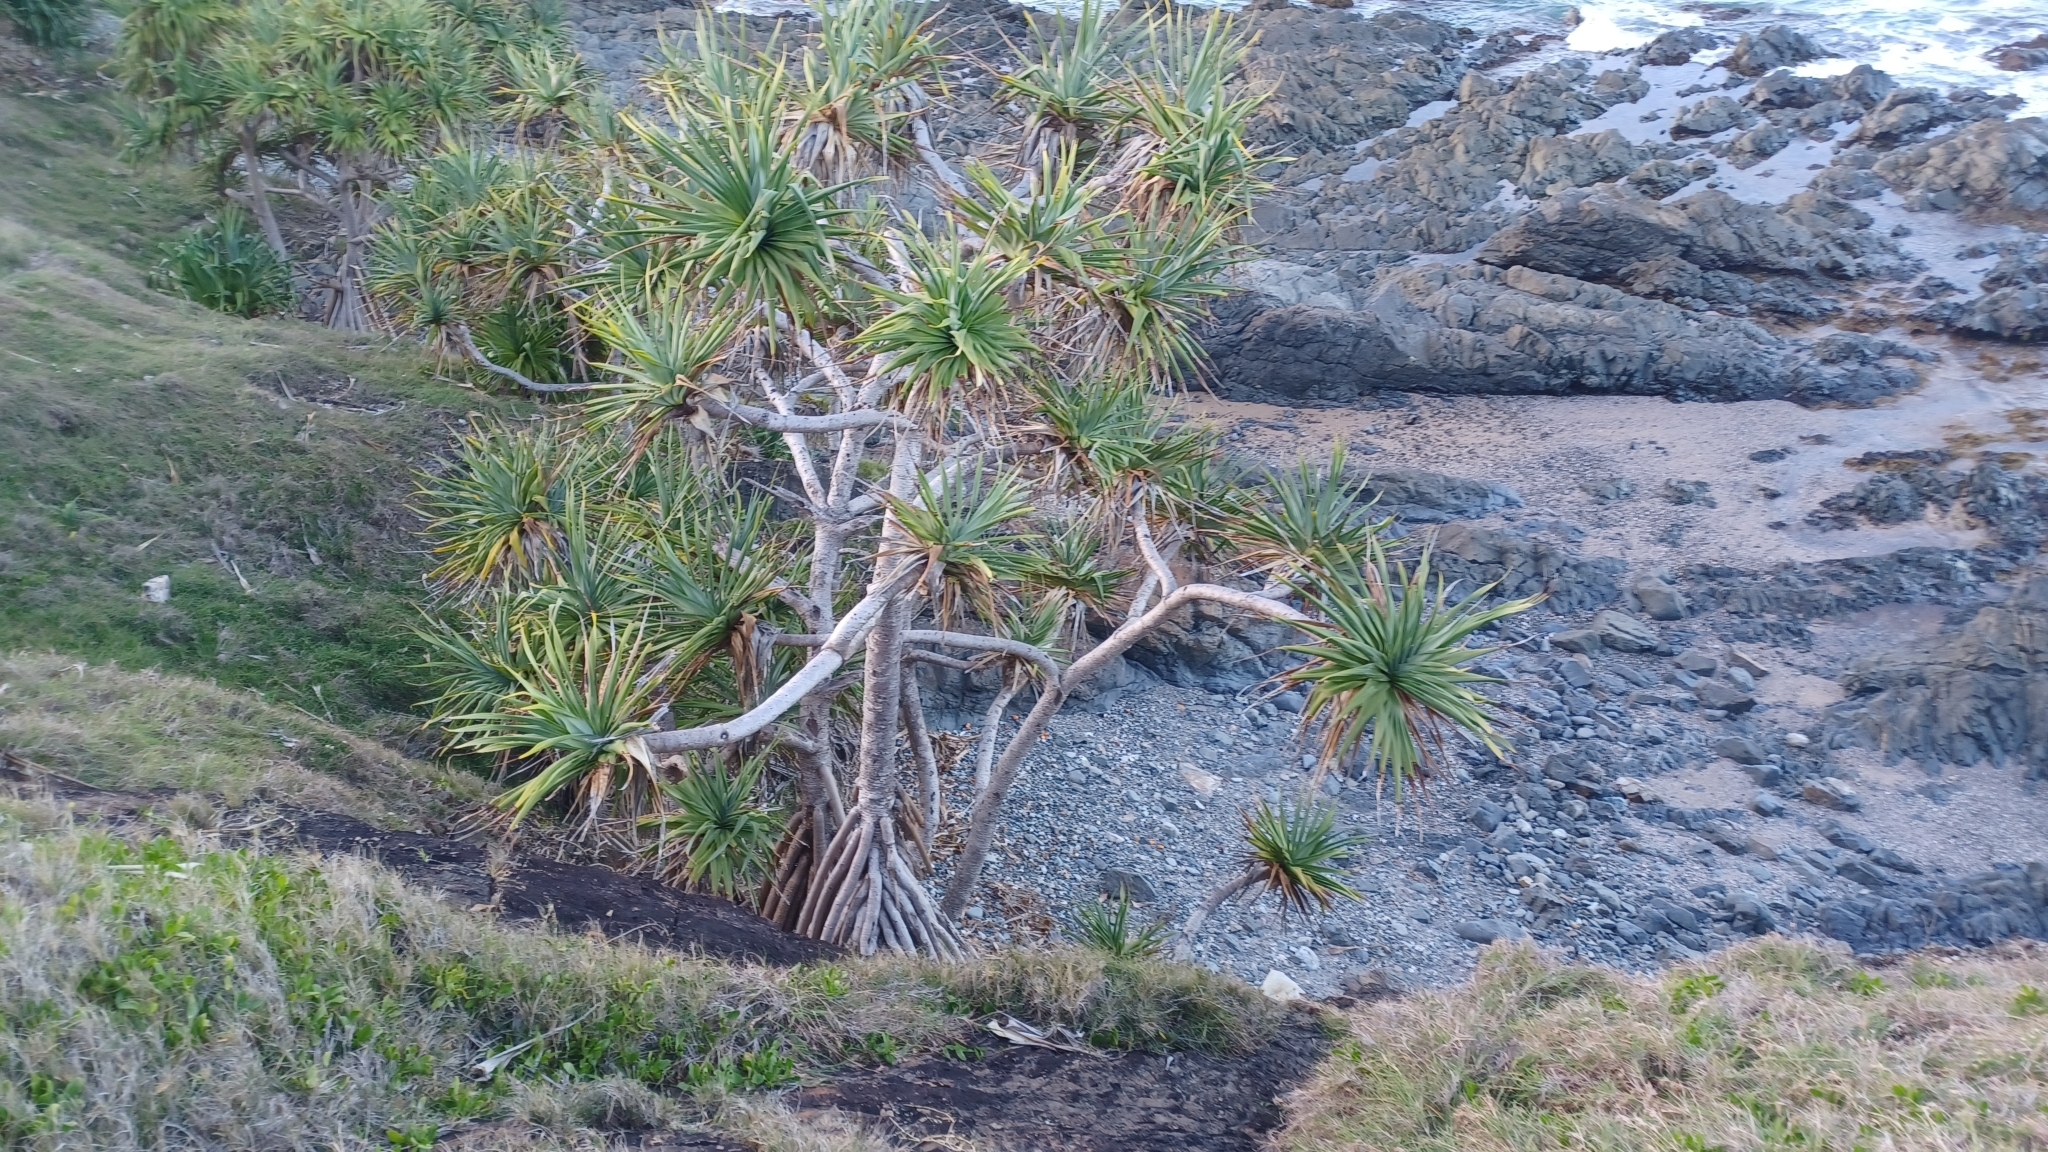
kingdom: Plantae
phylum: Tracheophyta
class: Liliopsida
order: Pandanales
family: Pandanaceae
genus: Pandanus
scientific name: Pandanus tectorius
